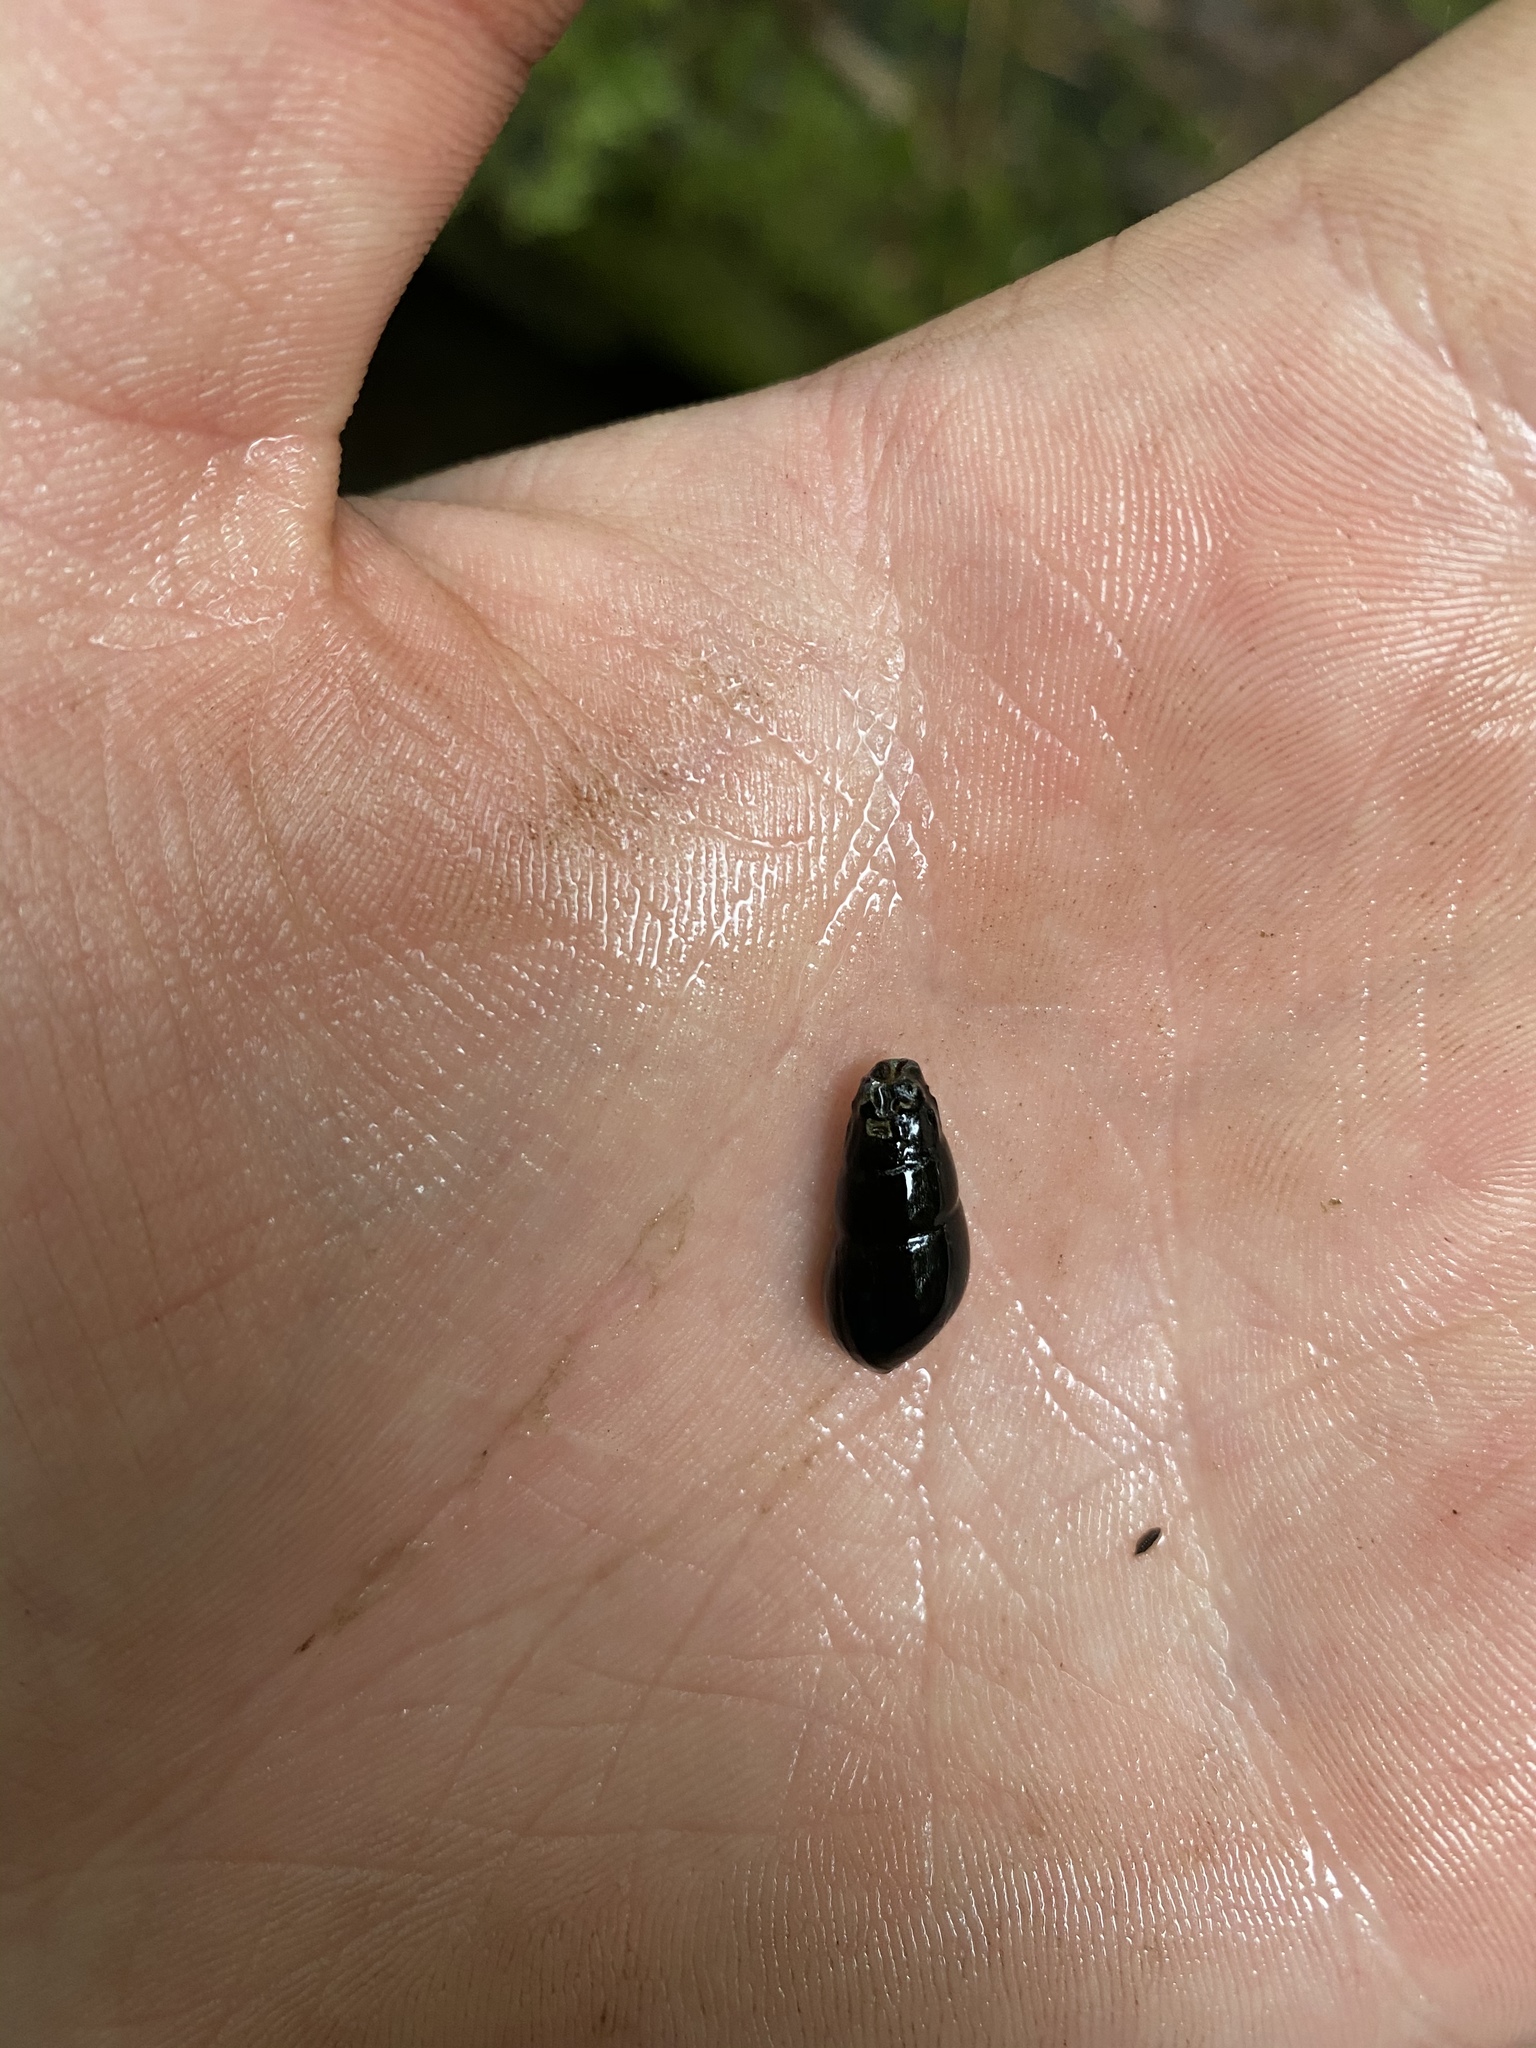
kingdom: Animalia
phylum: Mollusca
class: Gastropoda
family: Semisulcospiridae
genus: Juga
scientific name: Juga plicifera
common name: Pleated juga
